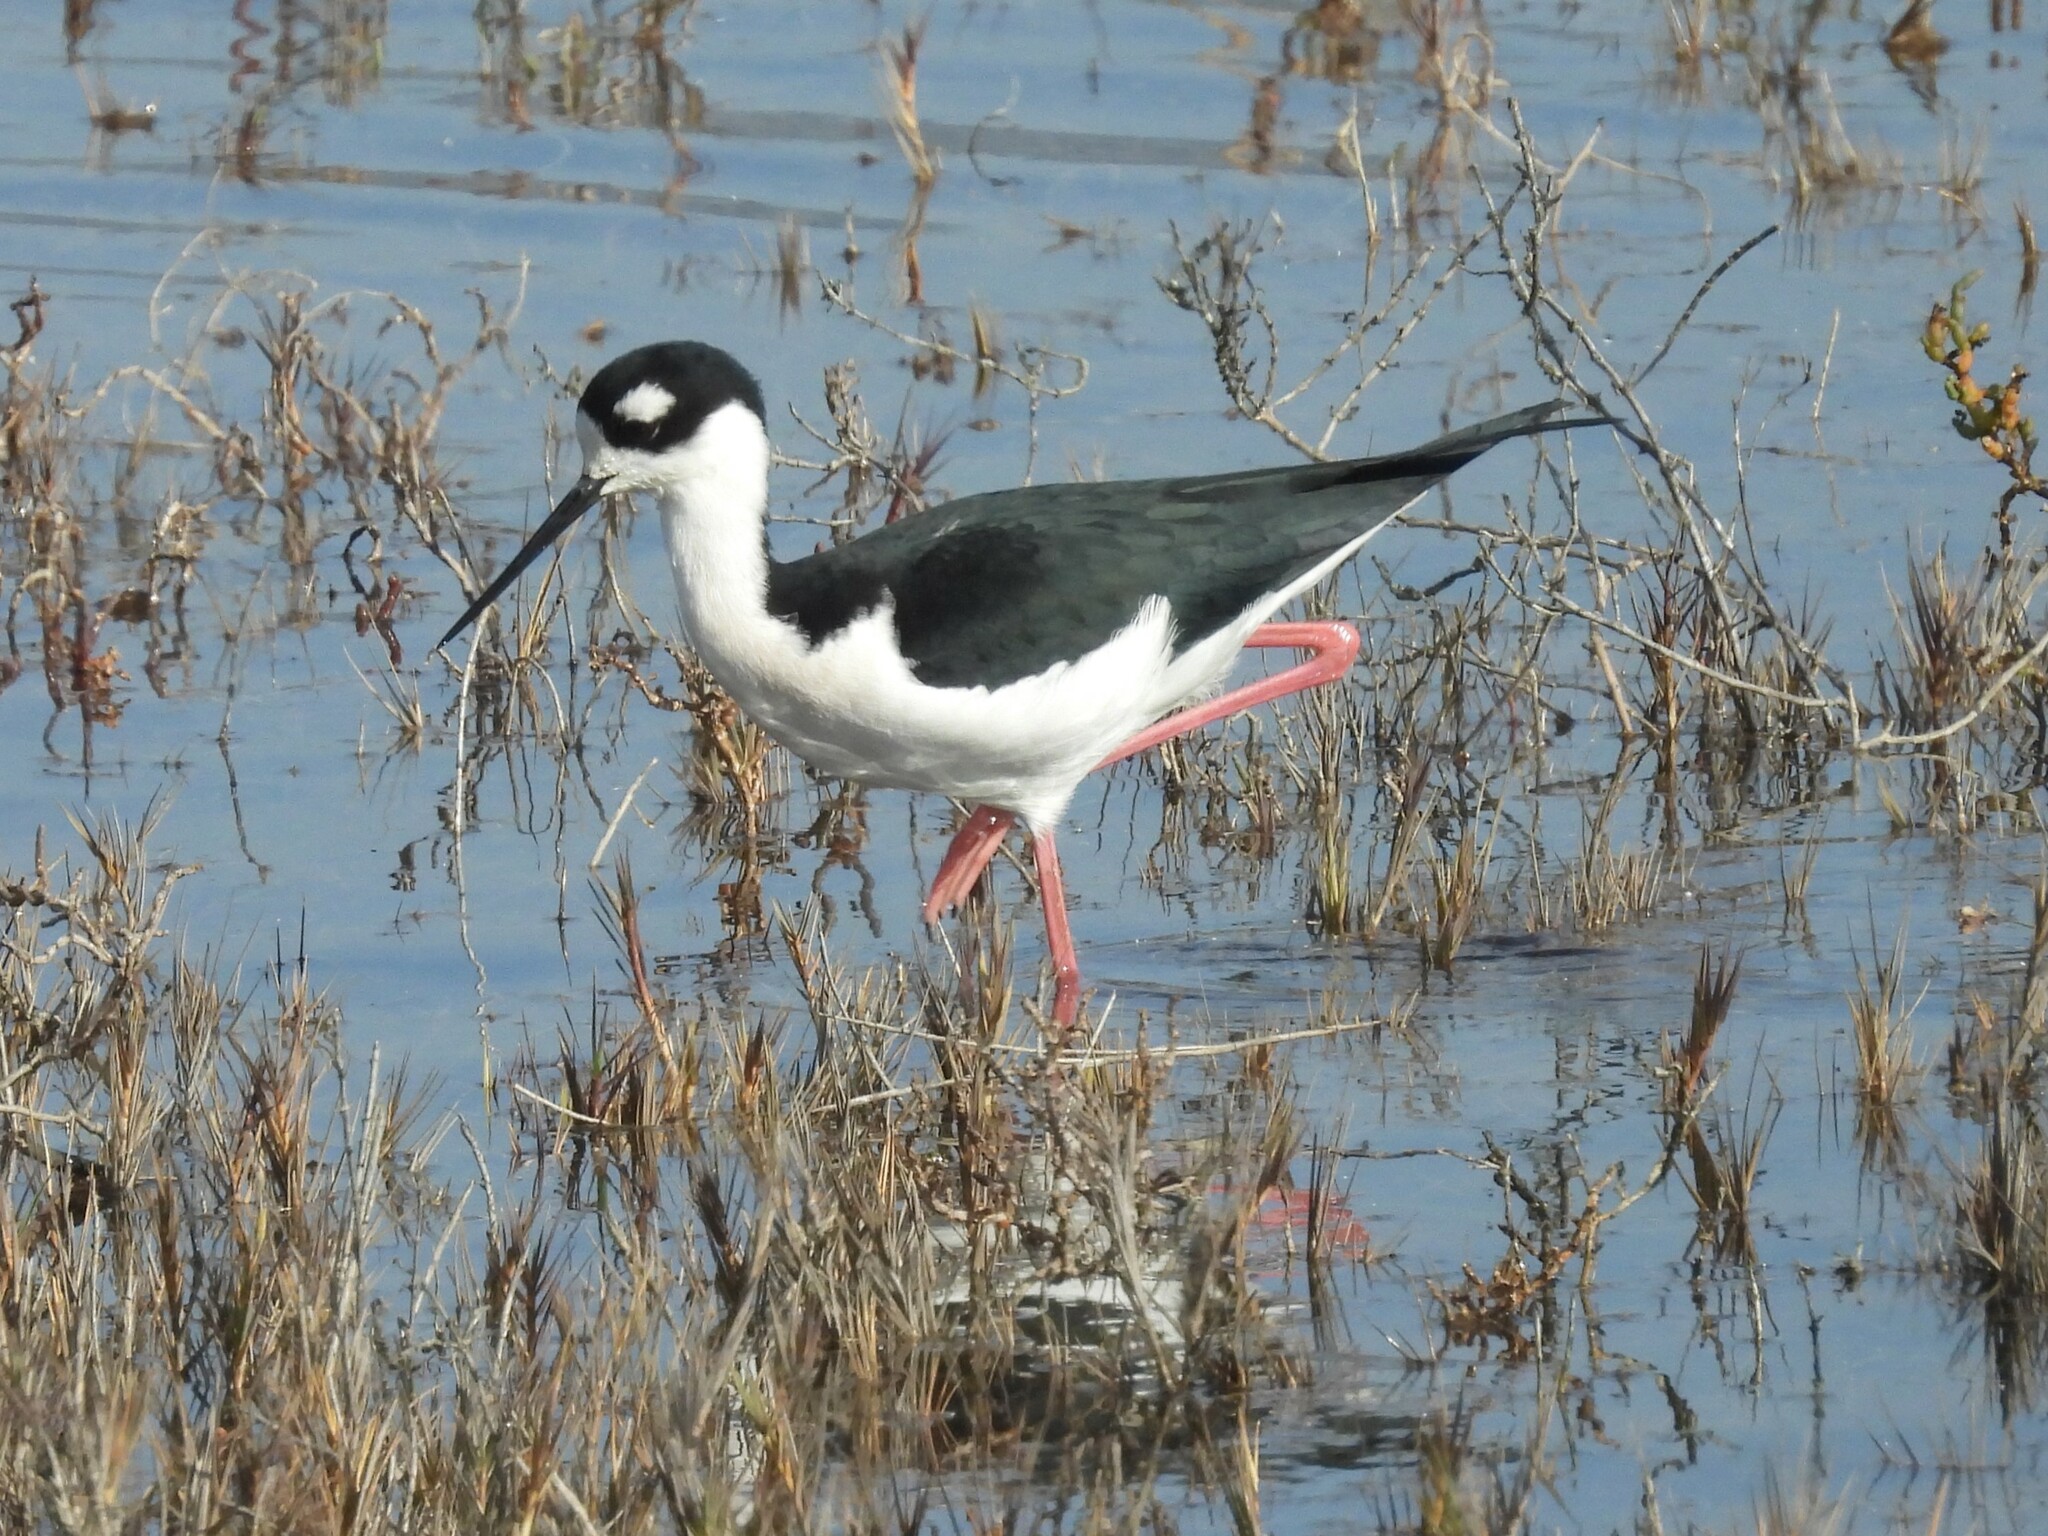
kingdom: Animalia
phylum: Chordata
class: Aves
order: Charadriiformes
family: Recurvirostridae
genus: Himantopus
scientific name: Himantopus mexicanus
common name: Black-necked stilt
